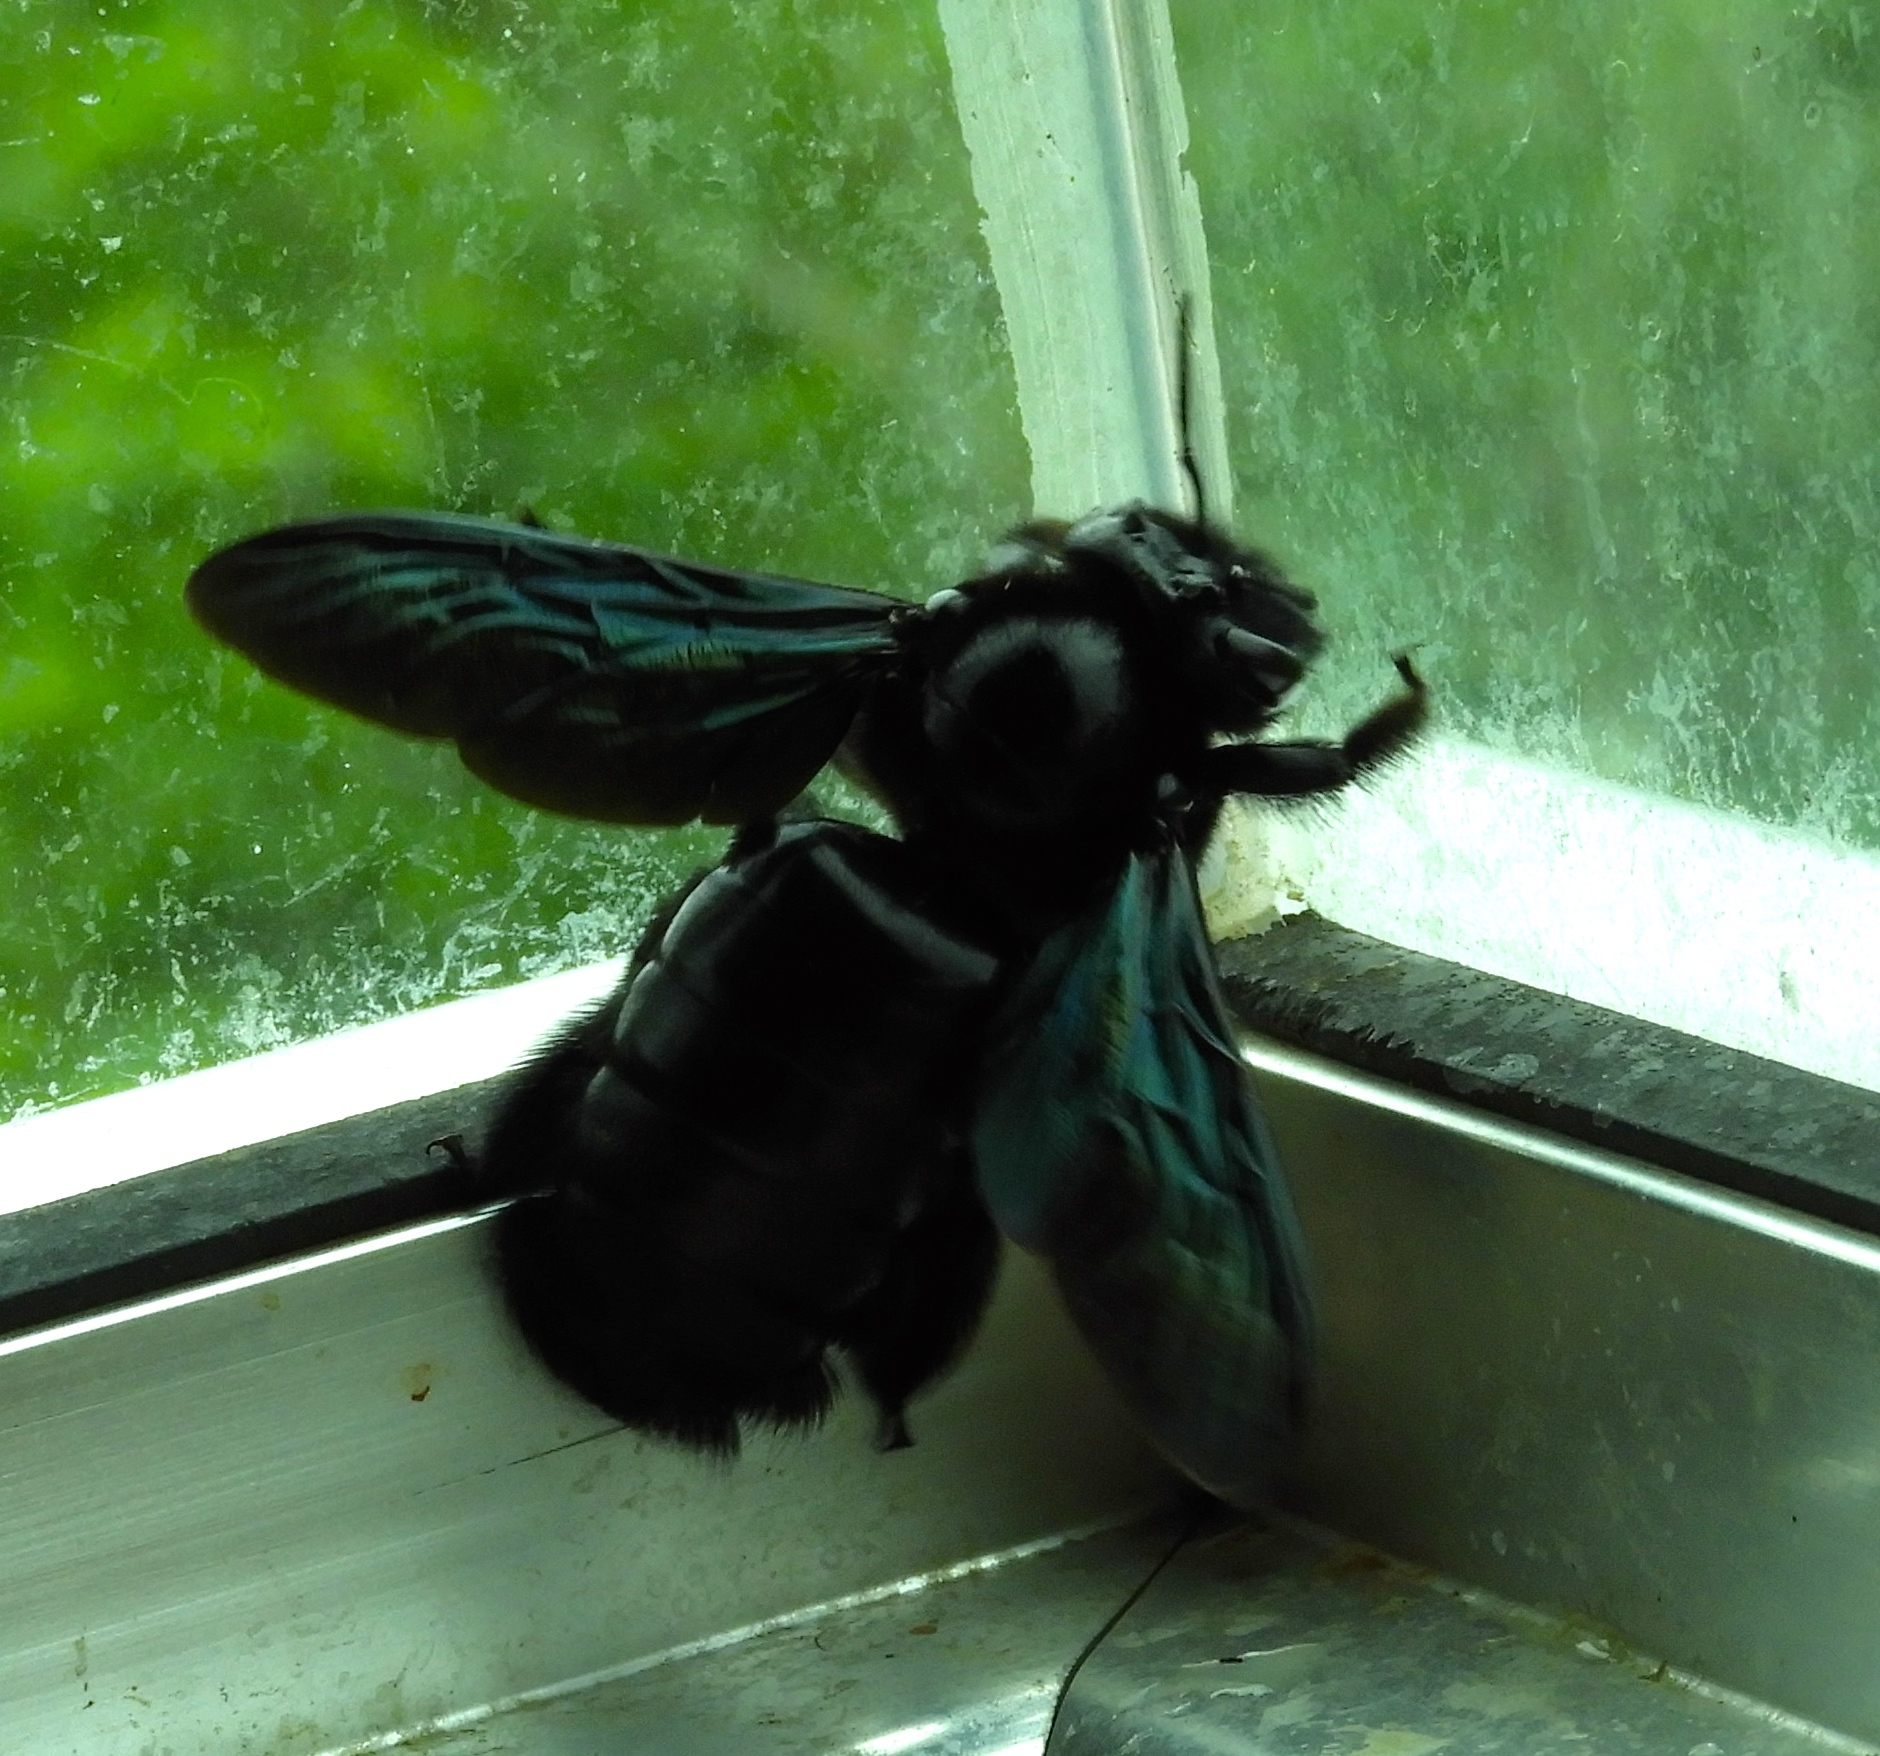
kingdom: Animalia
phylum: Arthropoda
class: Insecta
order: Hymenoptera
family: Apidae
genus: Xylocopa
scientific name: Xylocopa fimbriata
